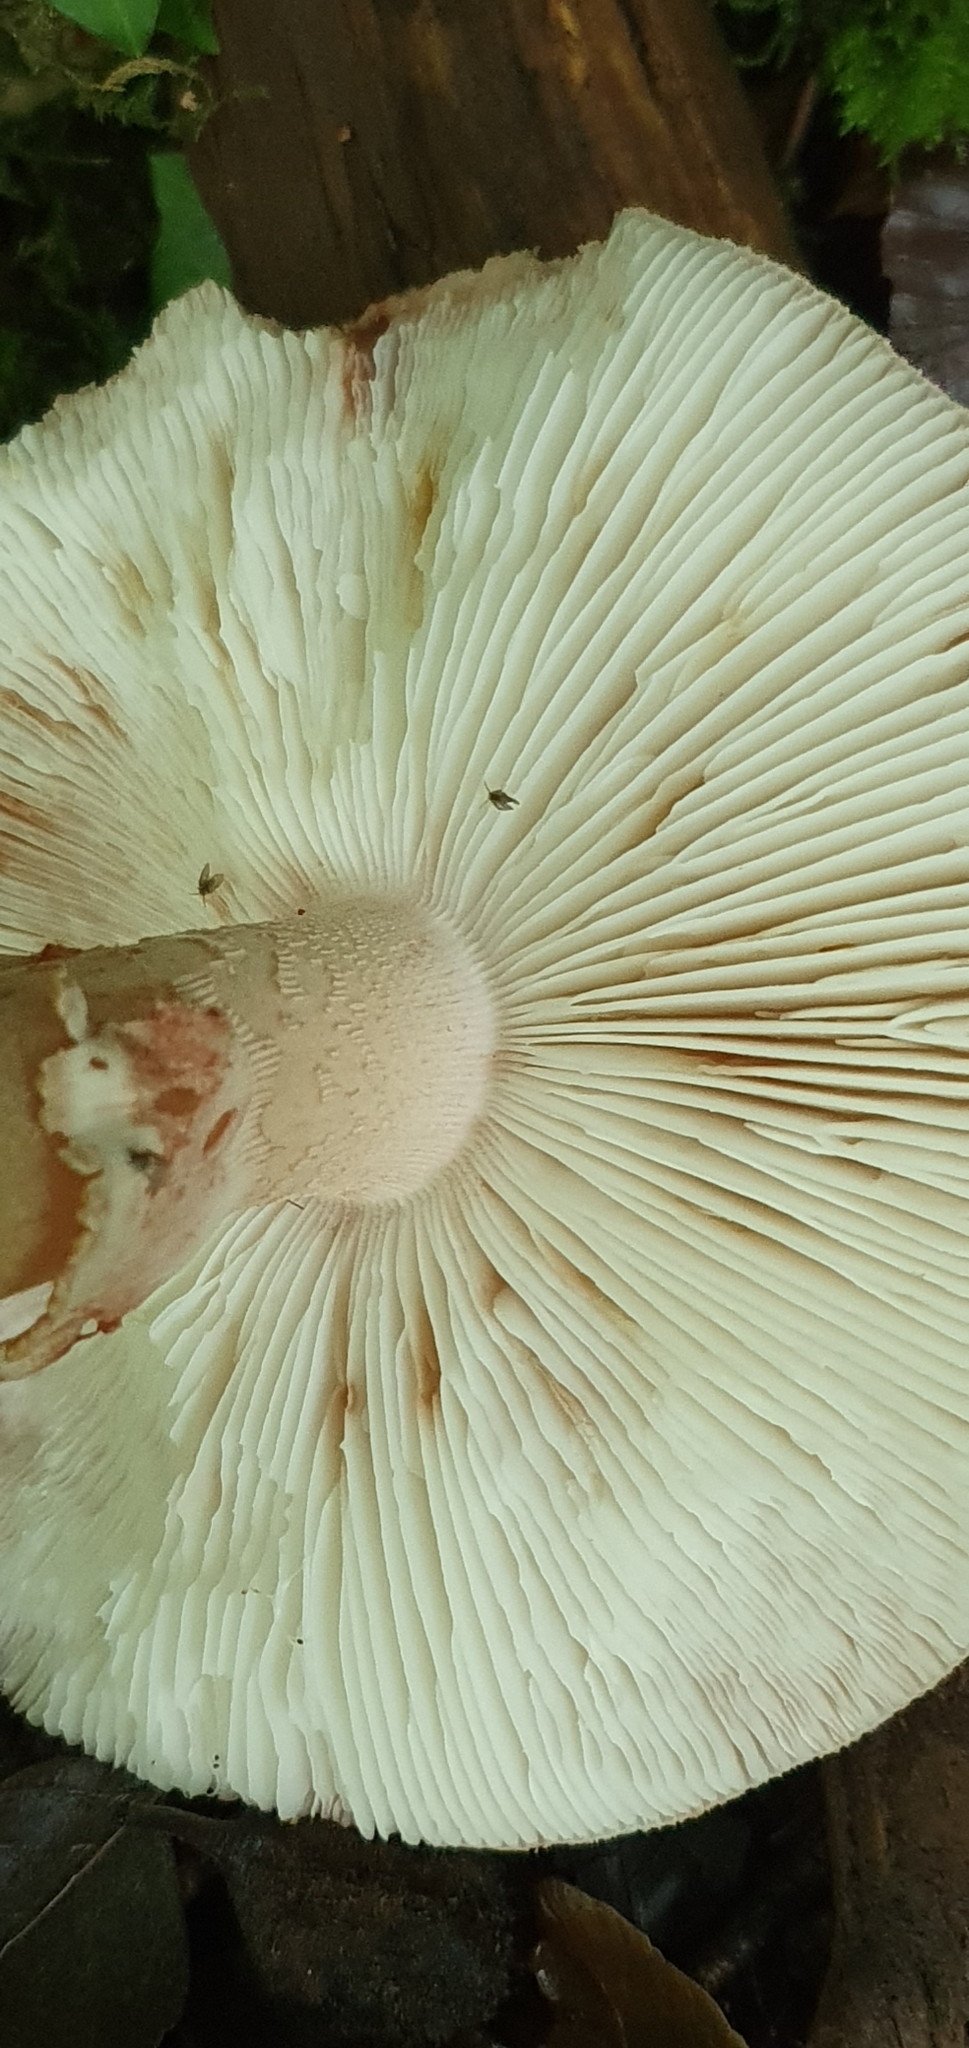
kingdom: Fungi
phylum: Basidiomycota
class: Agaricomycetes
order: Agaricales
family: Amanitaceae
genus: Amanita
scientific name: Amanita rubescens
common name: Blusher
